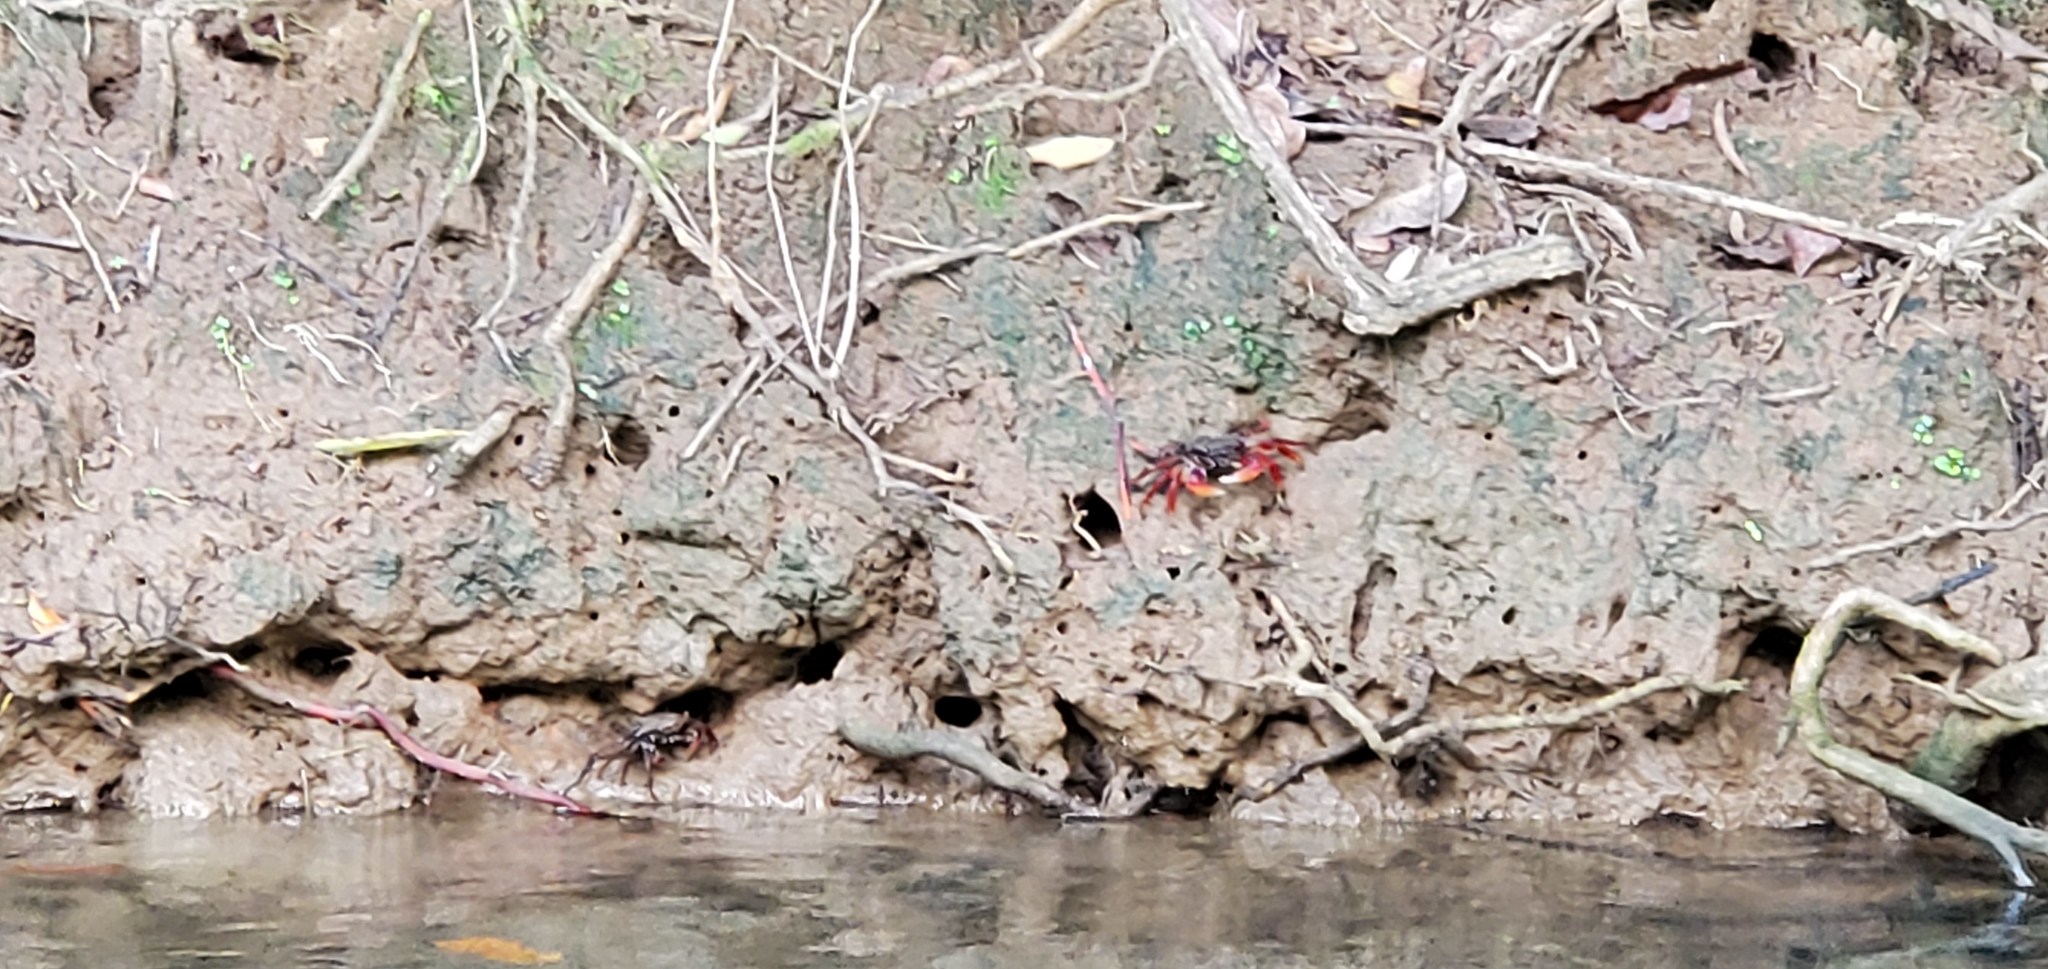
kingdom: Animalia
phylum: Arthropoda
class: Malacostraca
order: Decapoda
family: Grapsidae
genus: Goniopsis
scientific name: Goniopsis cruentata
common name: Mangrove crab
